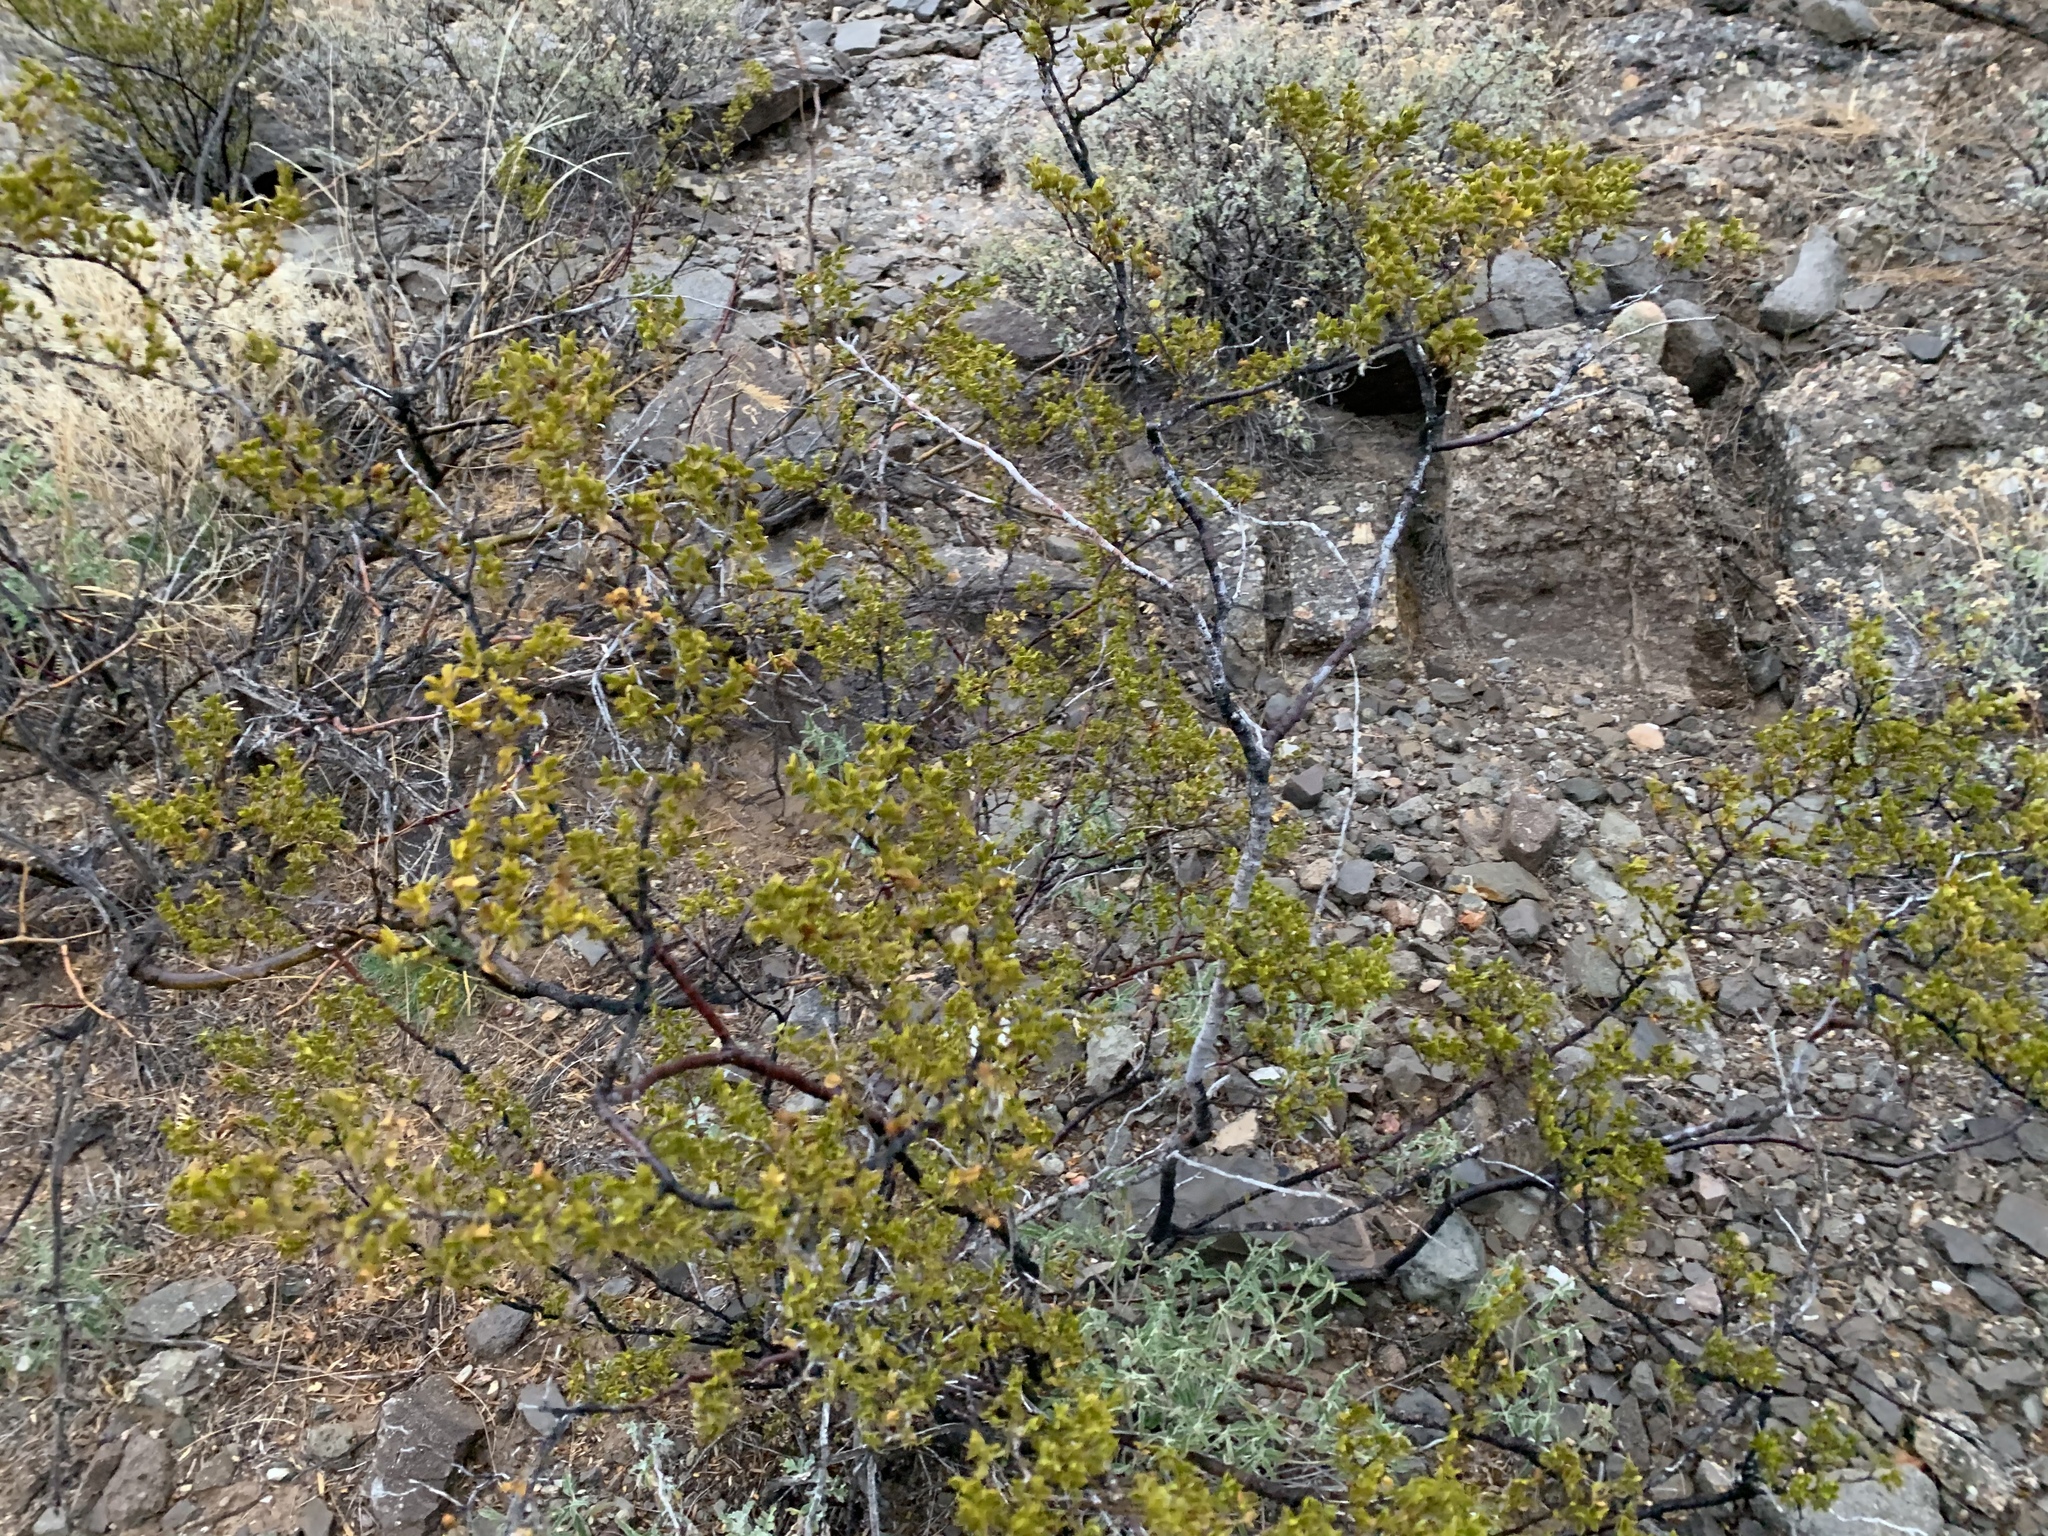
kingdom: Plantae
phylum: Tracheophyta
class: Magnoliopsida
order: Zygophyllales
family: Zygophyllaceae
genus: Larrea
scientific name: Larrea tridentata
